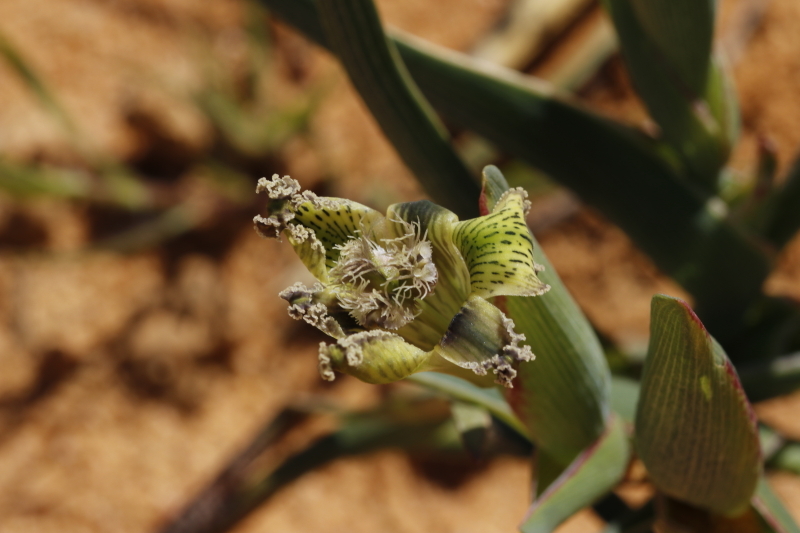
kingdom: Plantae
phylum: Tracheophyta
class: Liliopsida
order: Asparagales
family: Iridaceae
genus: Ferraria
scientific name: Ferraria ferrariola
